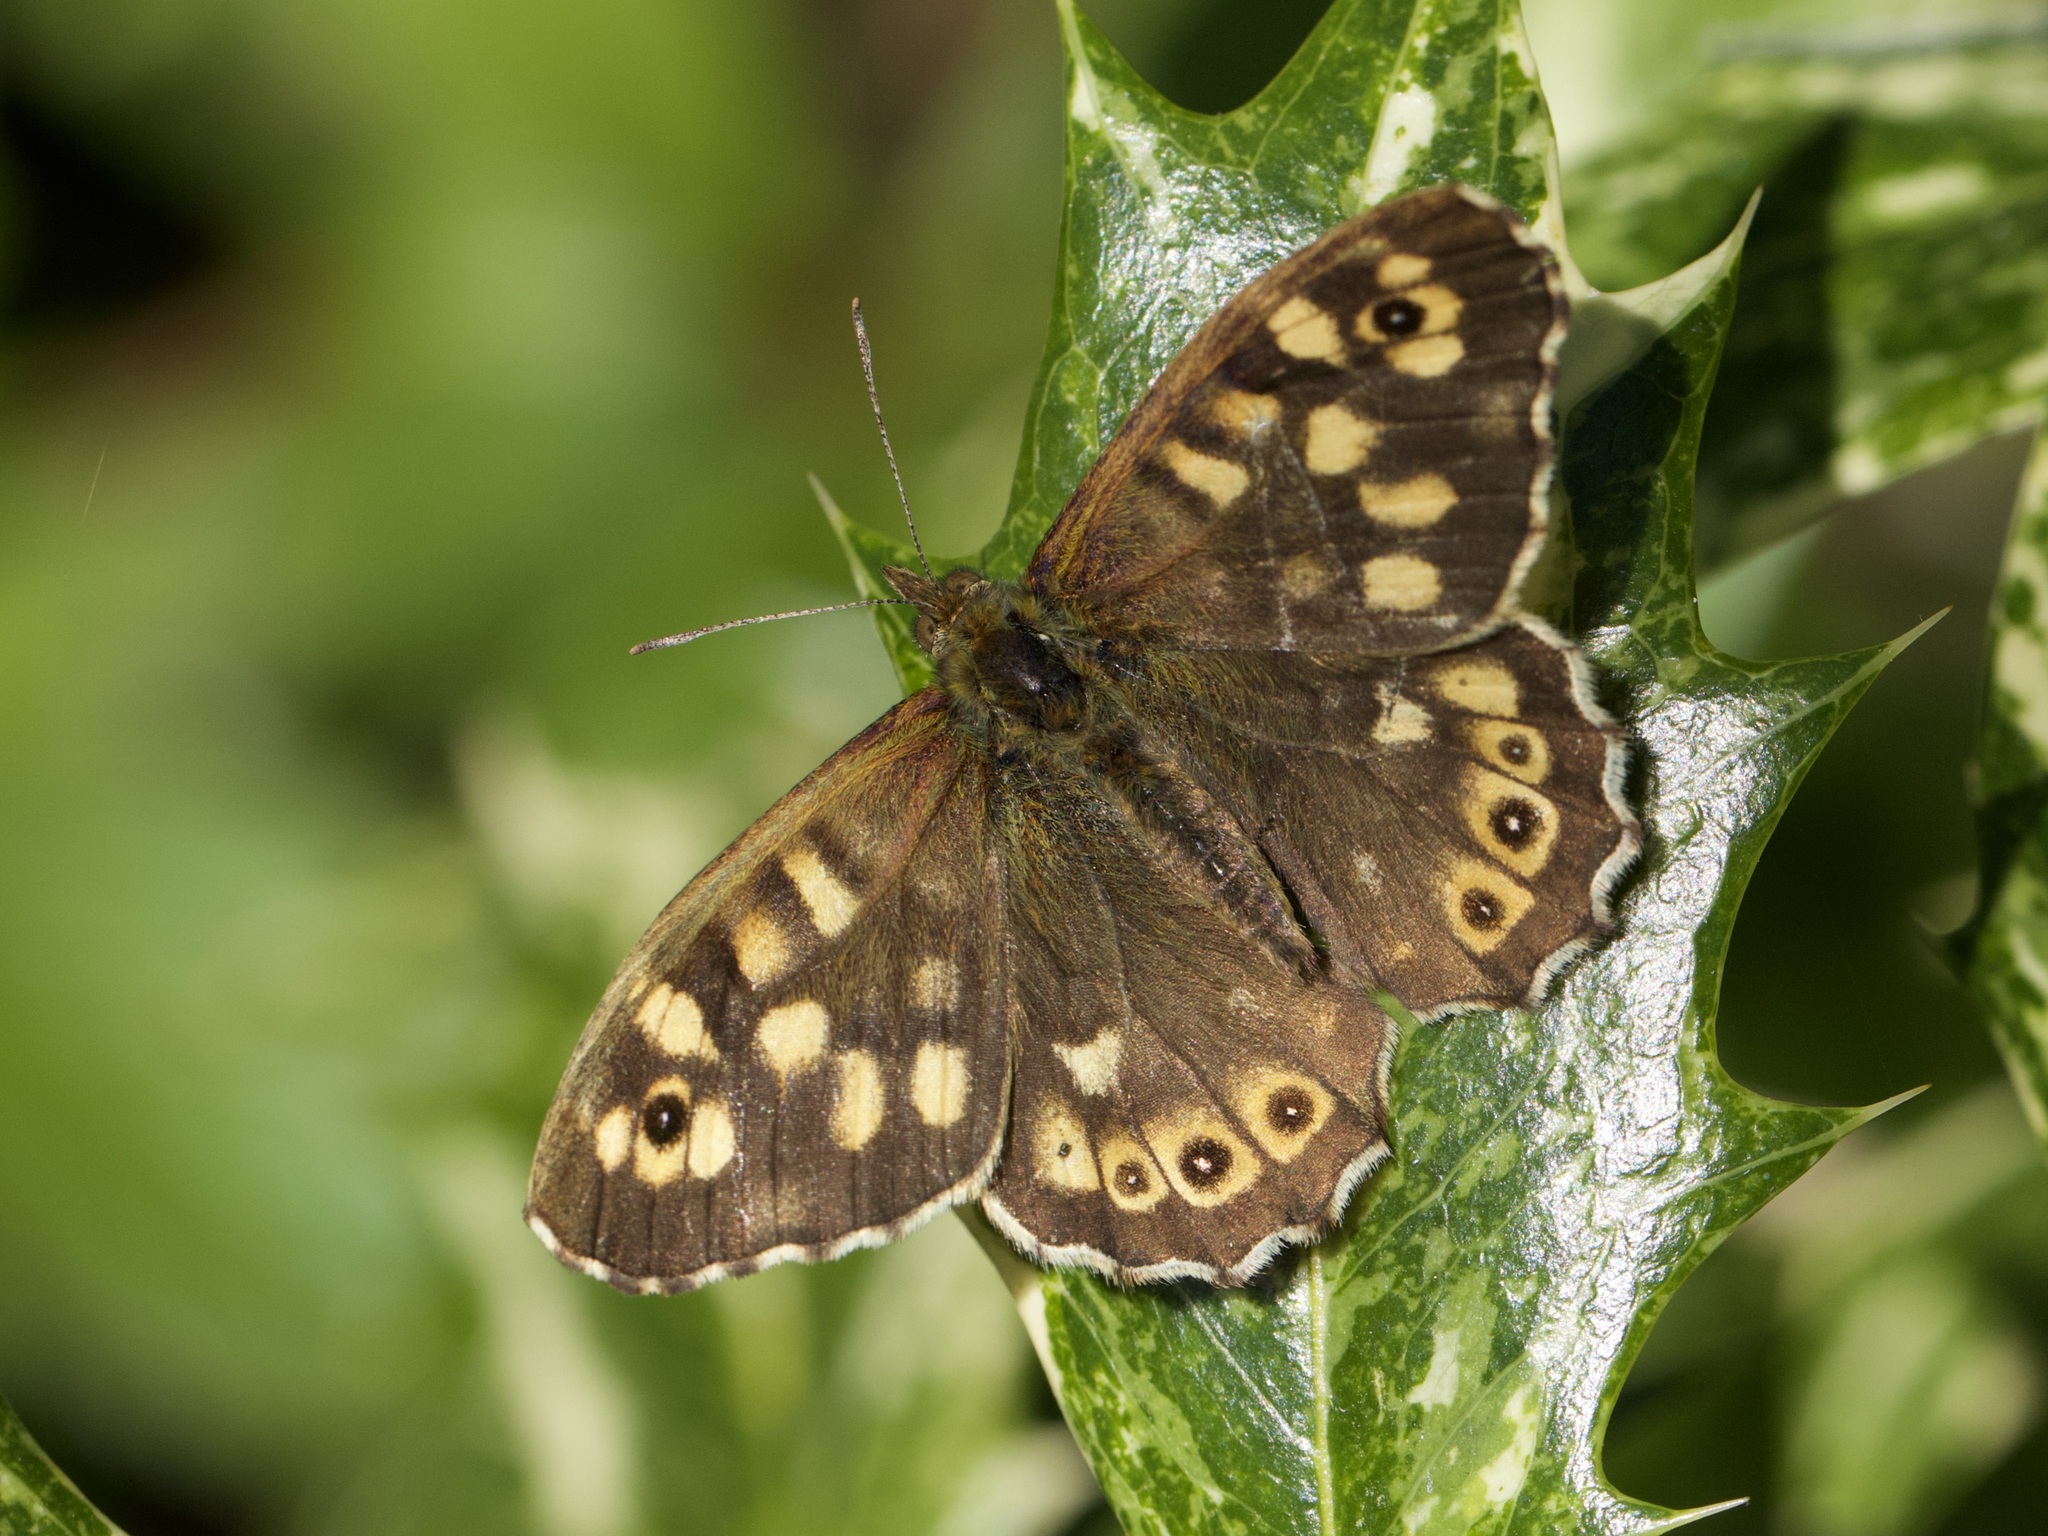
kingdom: Animalia
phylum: Arthropoda
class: Insecta
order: Lepidoptera
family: Nymphalidae
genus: Pararge
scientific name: Pararge aegeria
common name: Speckled wood
